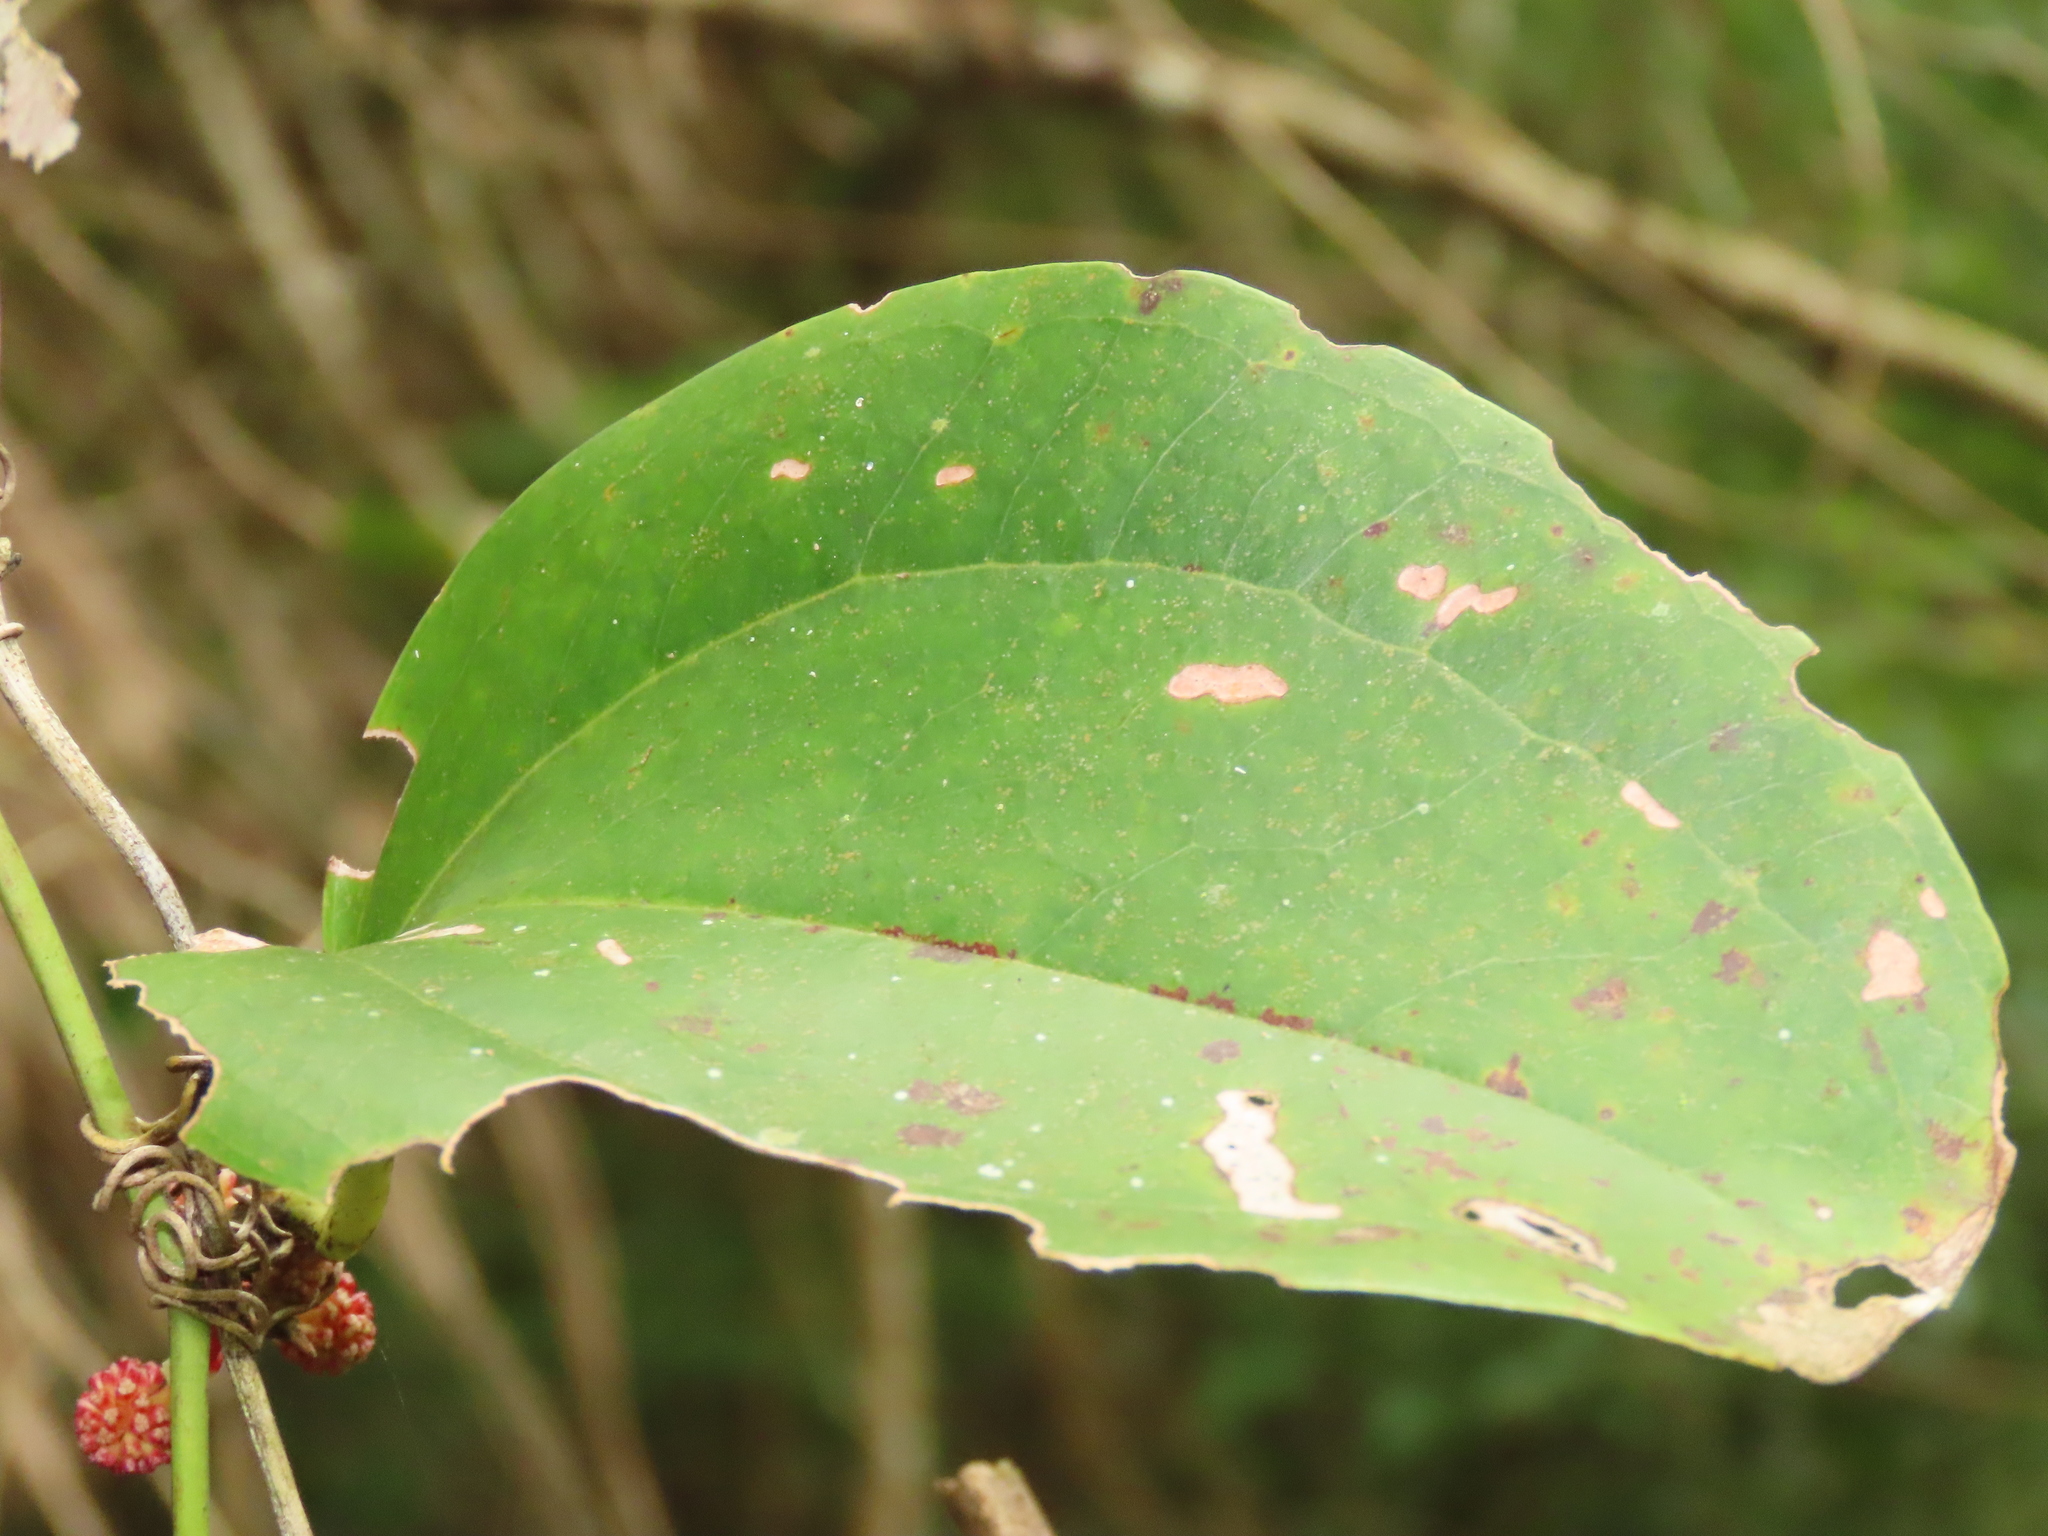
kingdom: Plantae
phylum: Tracheophyta
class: Liliopsida
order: Liliales
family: Smilacaceae
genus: Smilax
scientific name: Smilax bracteata
